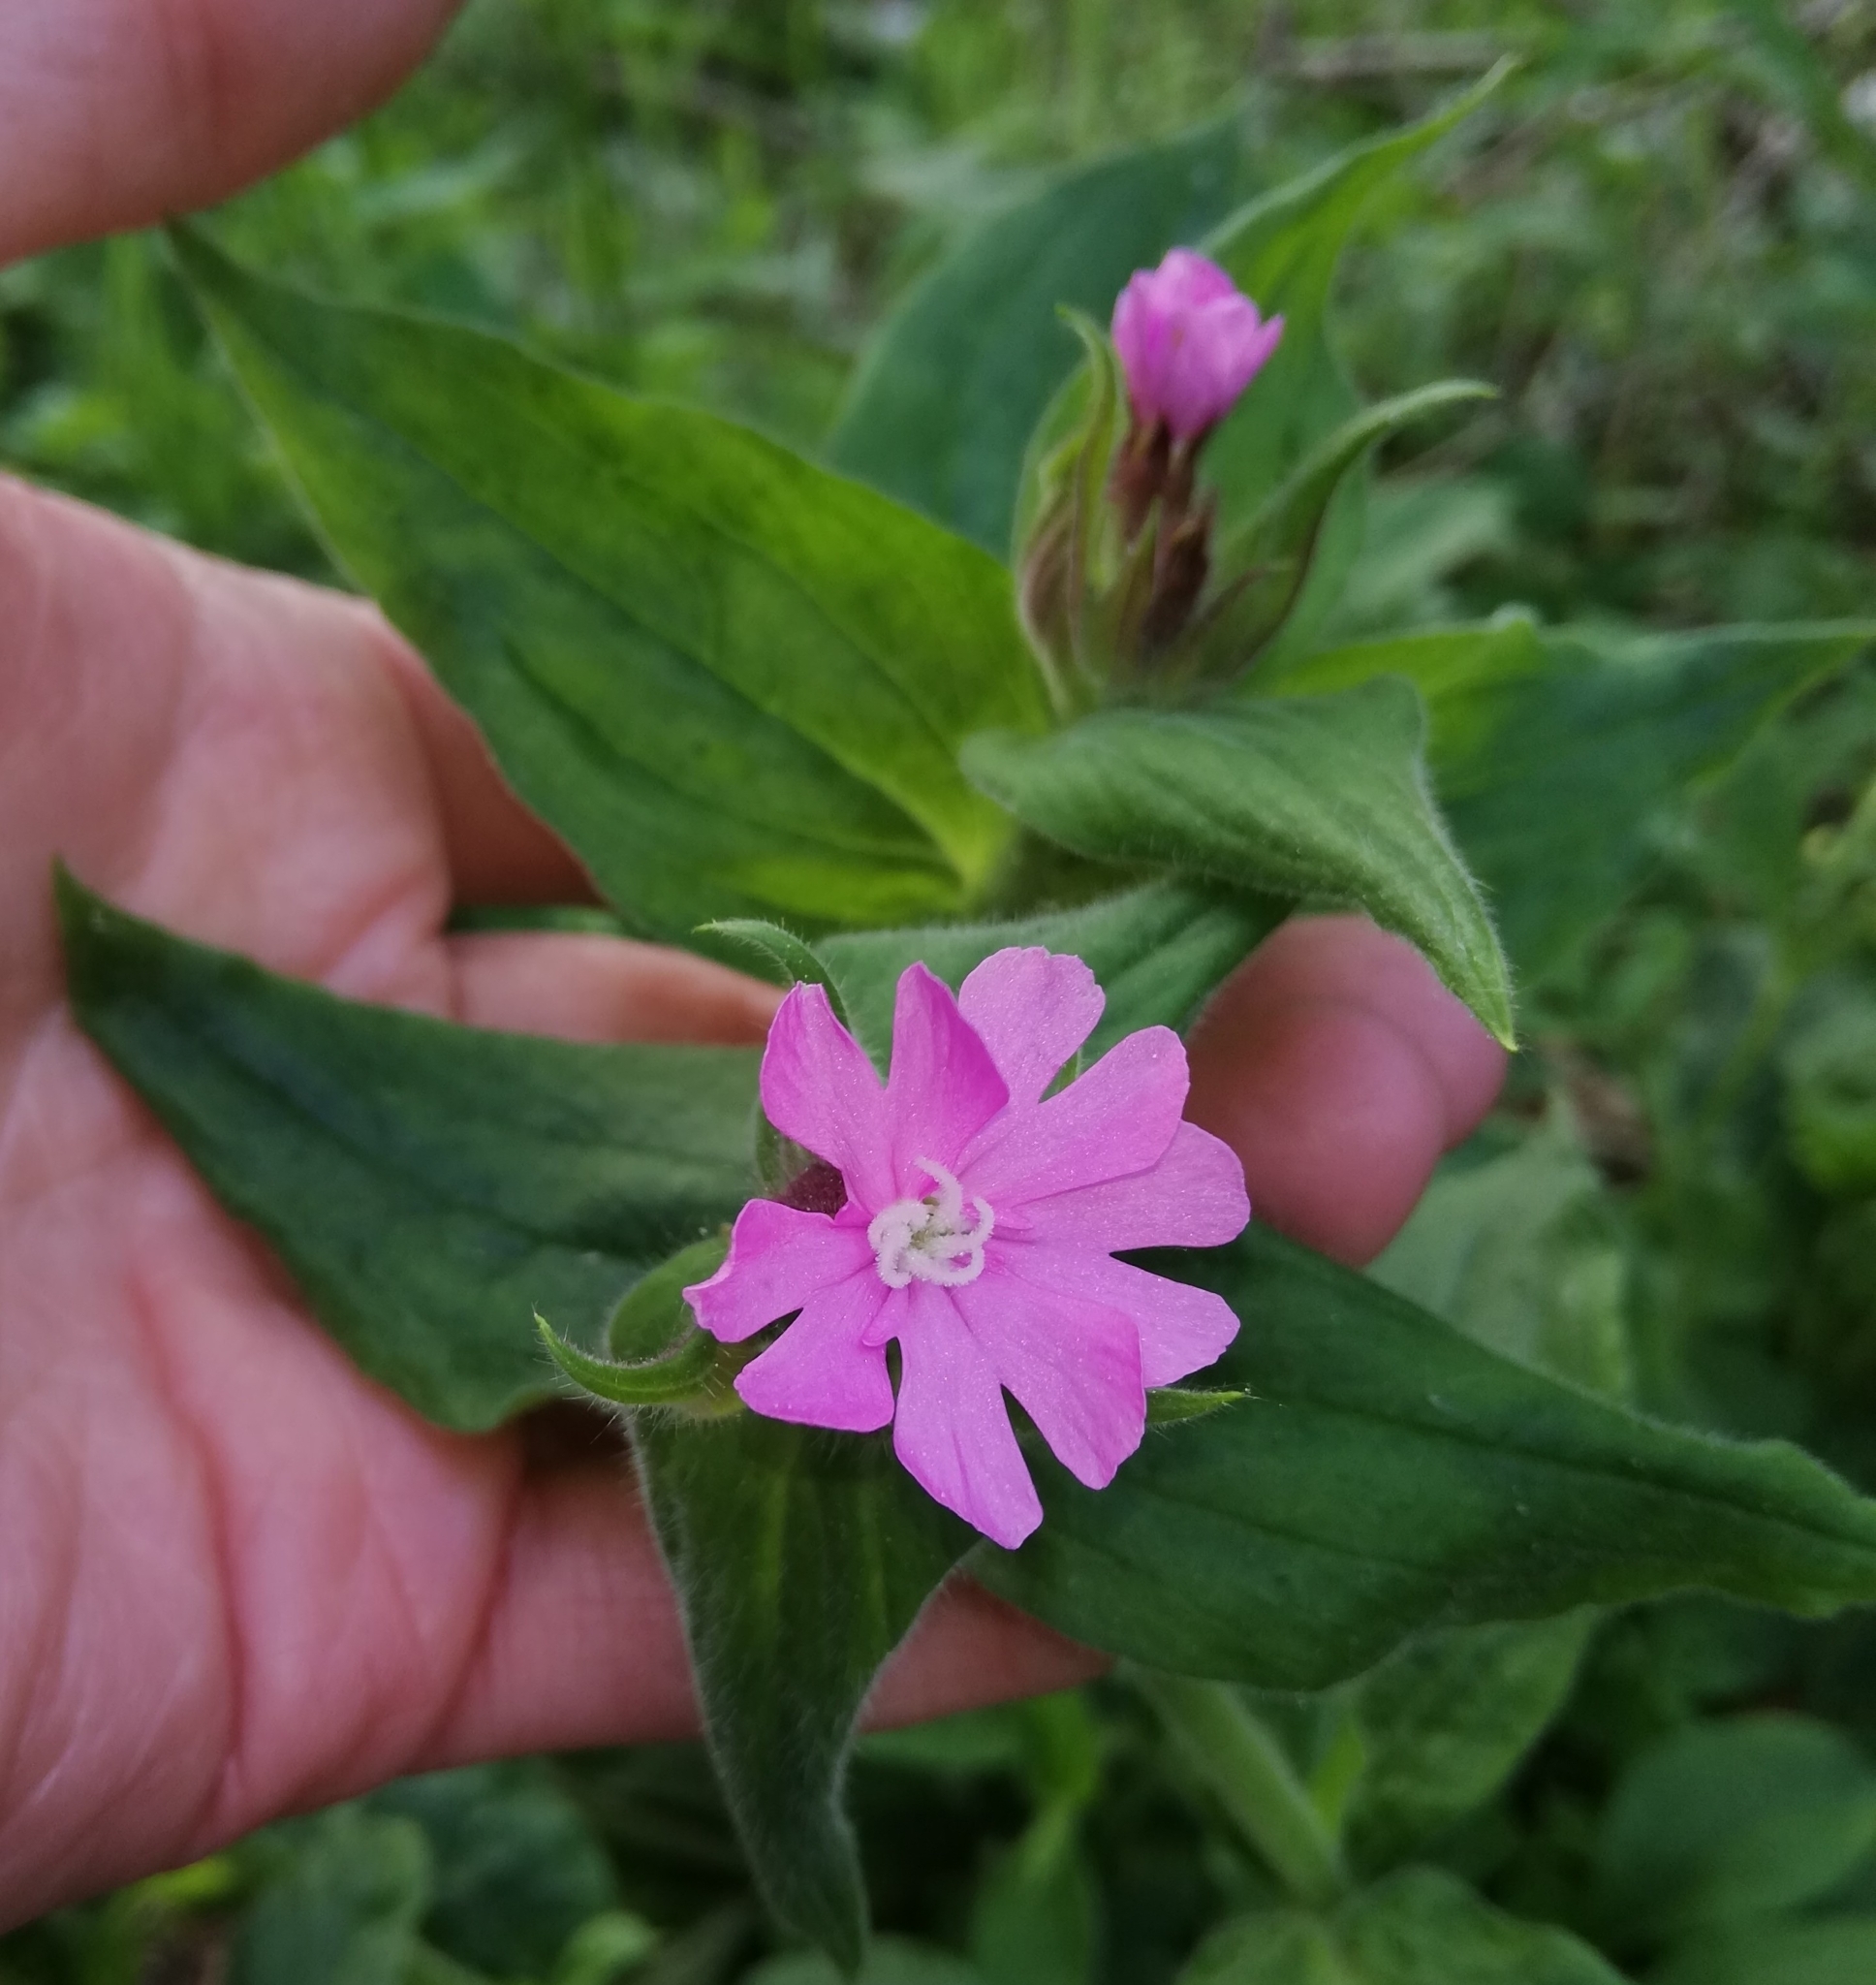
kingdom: Plantae
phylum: Tracheophyta
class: Magnoliopsida
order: Caryophyllales
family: Caryophyllaceae
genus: Silene
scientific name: Silene dioica
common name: Red campion
